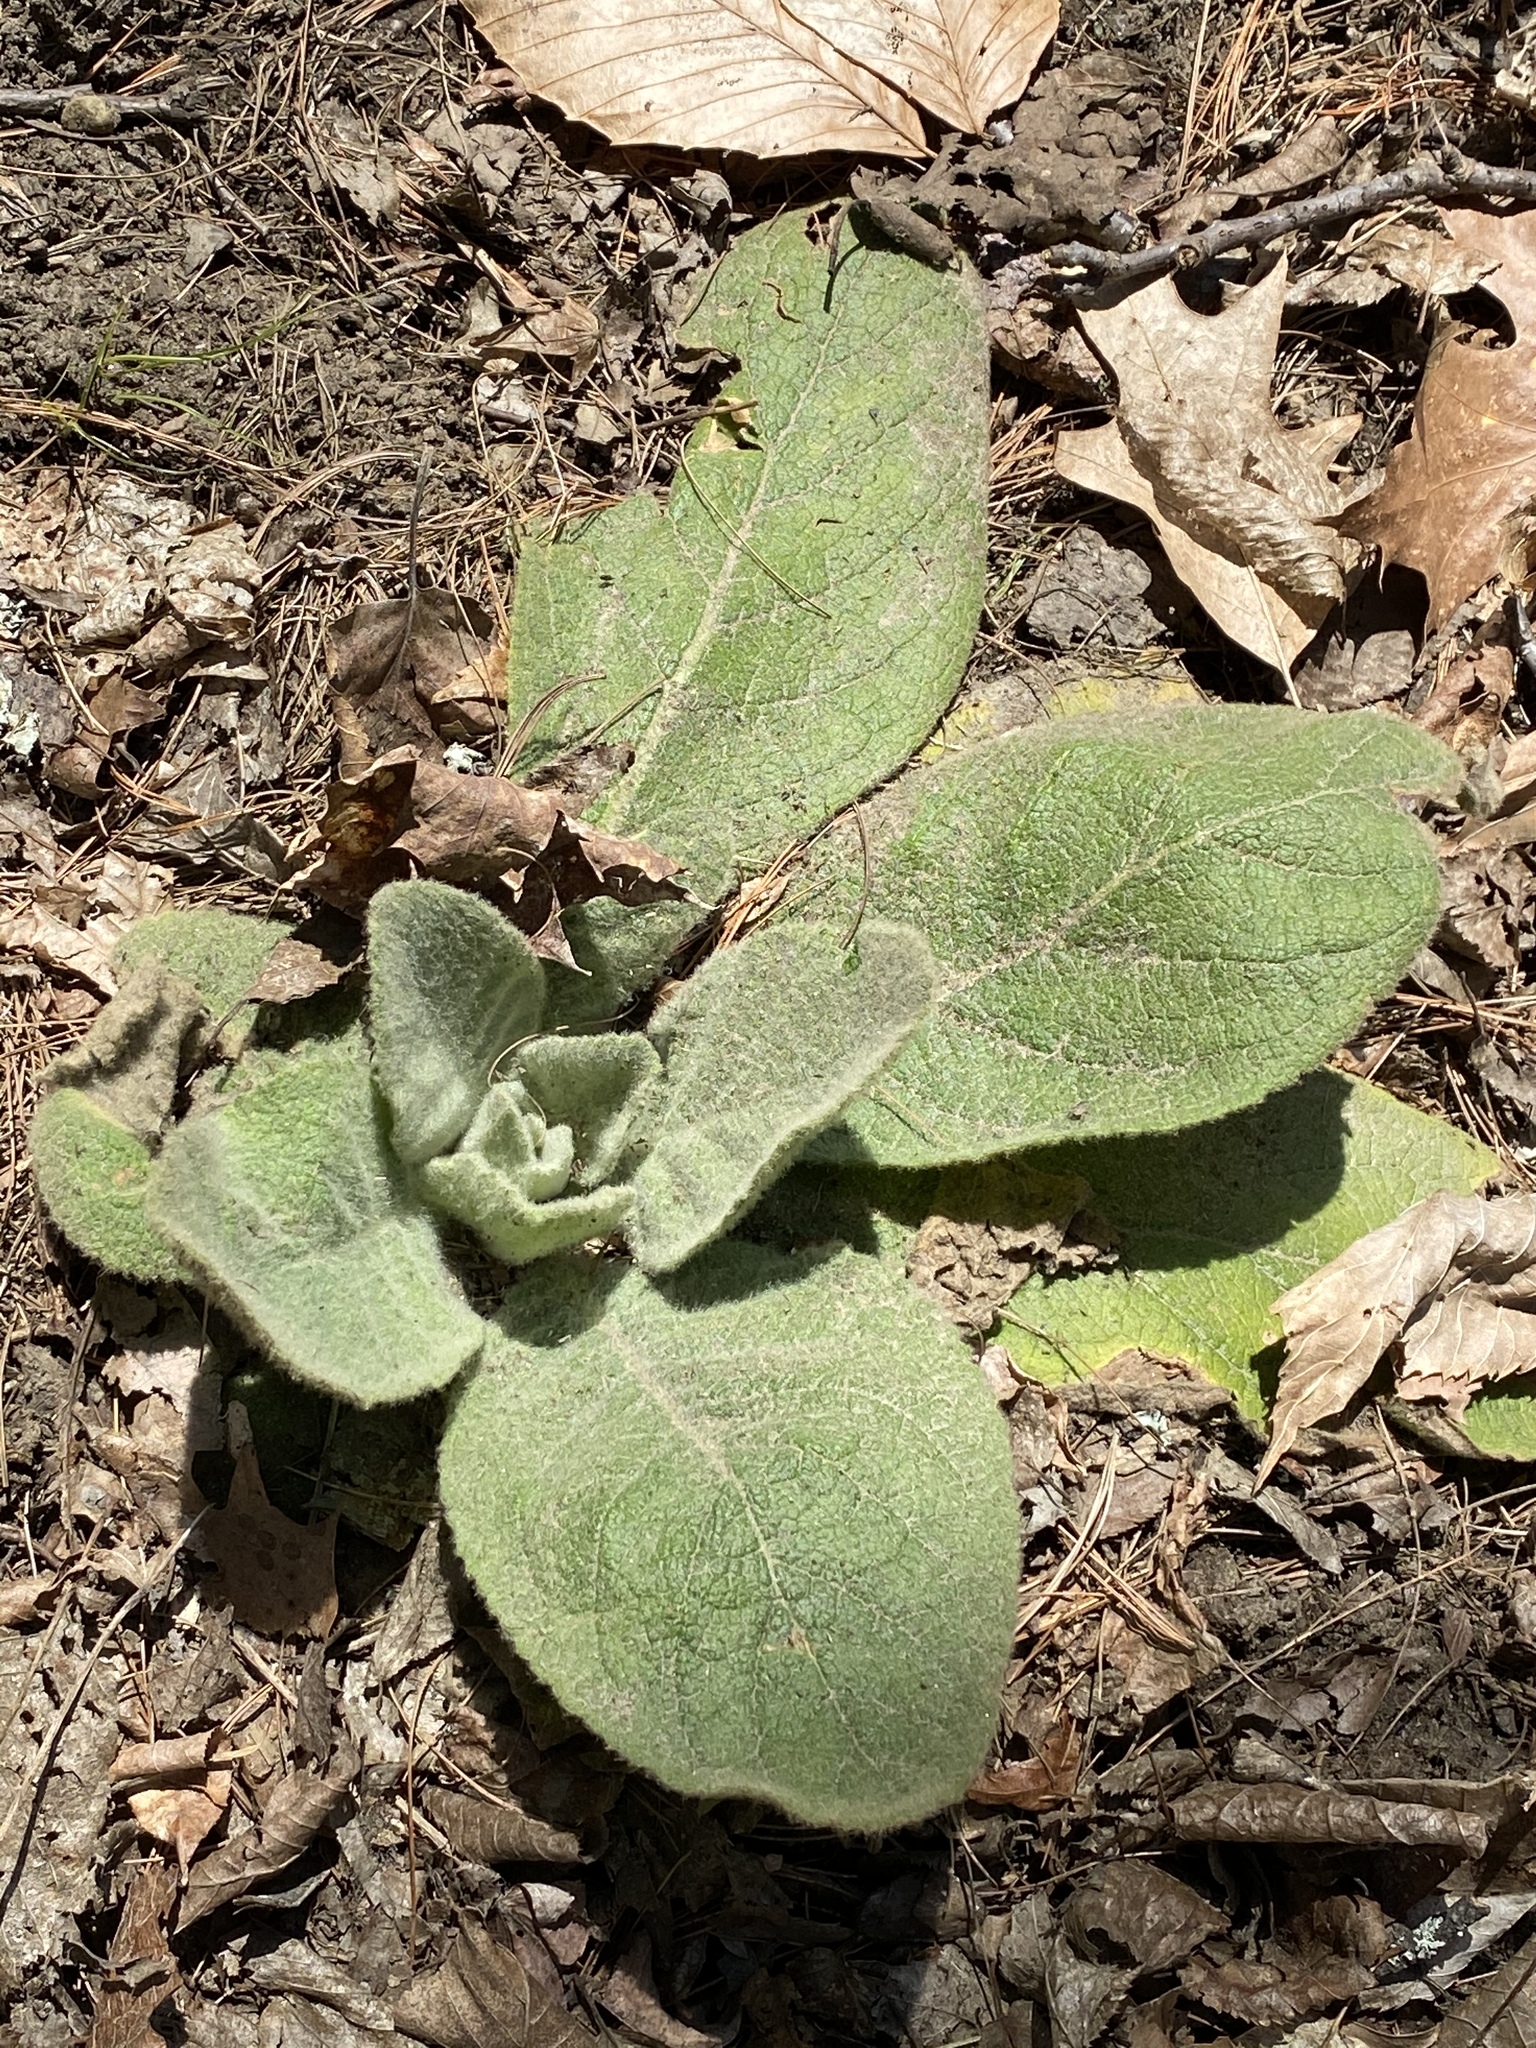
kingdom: Plantae
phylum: Tracheophyta
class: Magnoliopsida
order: Lamiales
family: Scrophulariaceae
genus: Verbascum
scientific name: Verbascum thapsus
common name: Common mullein
